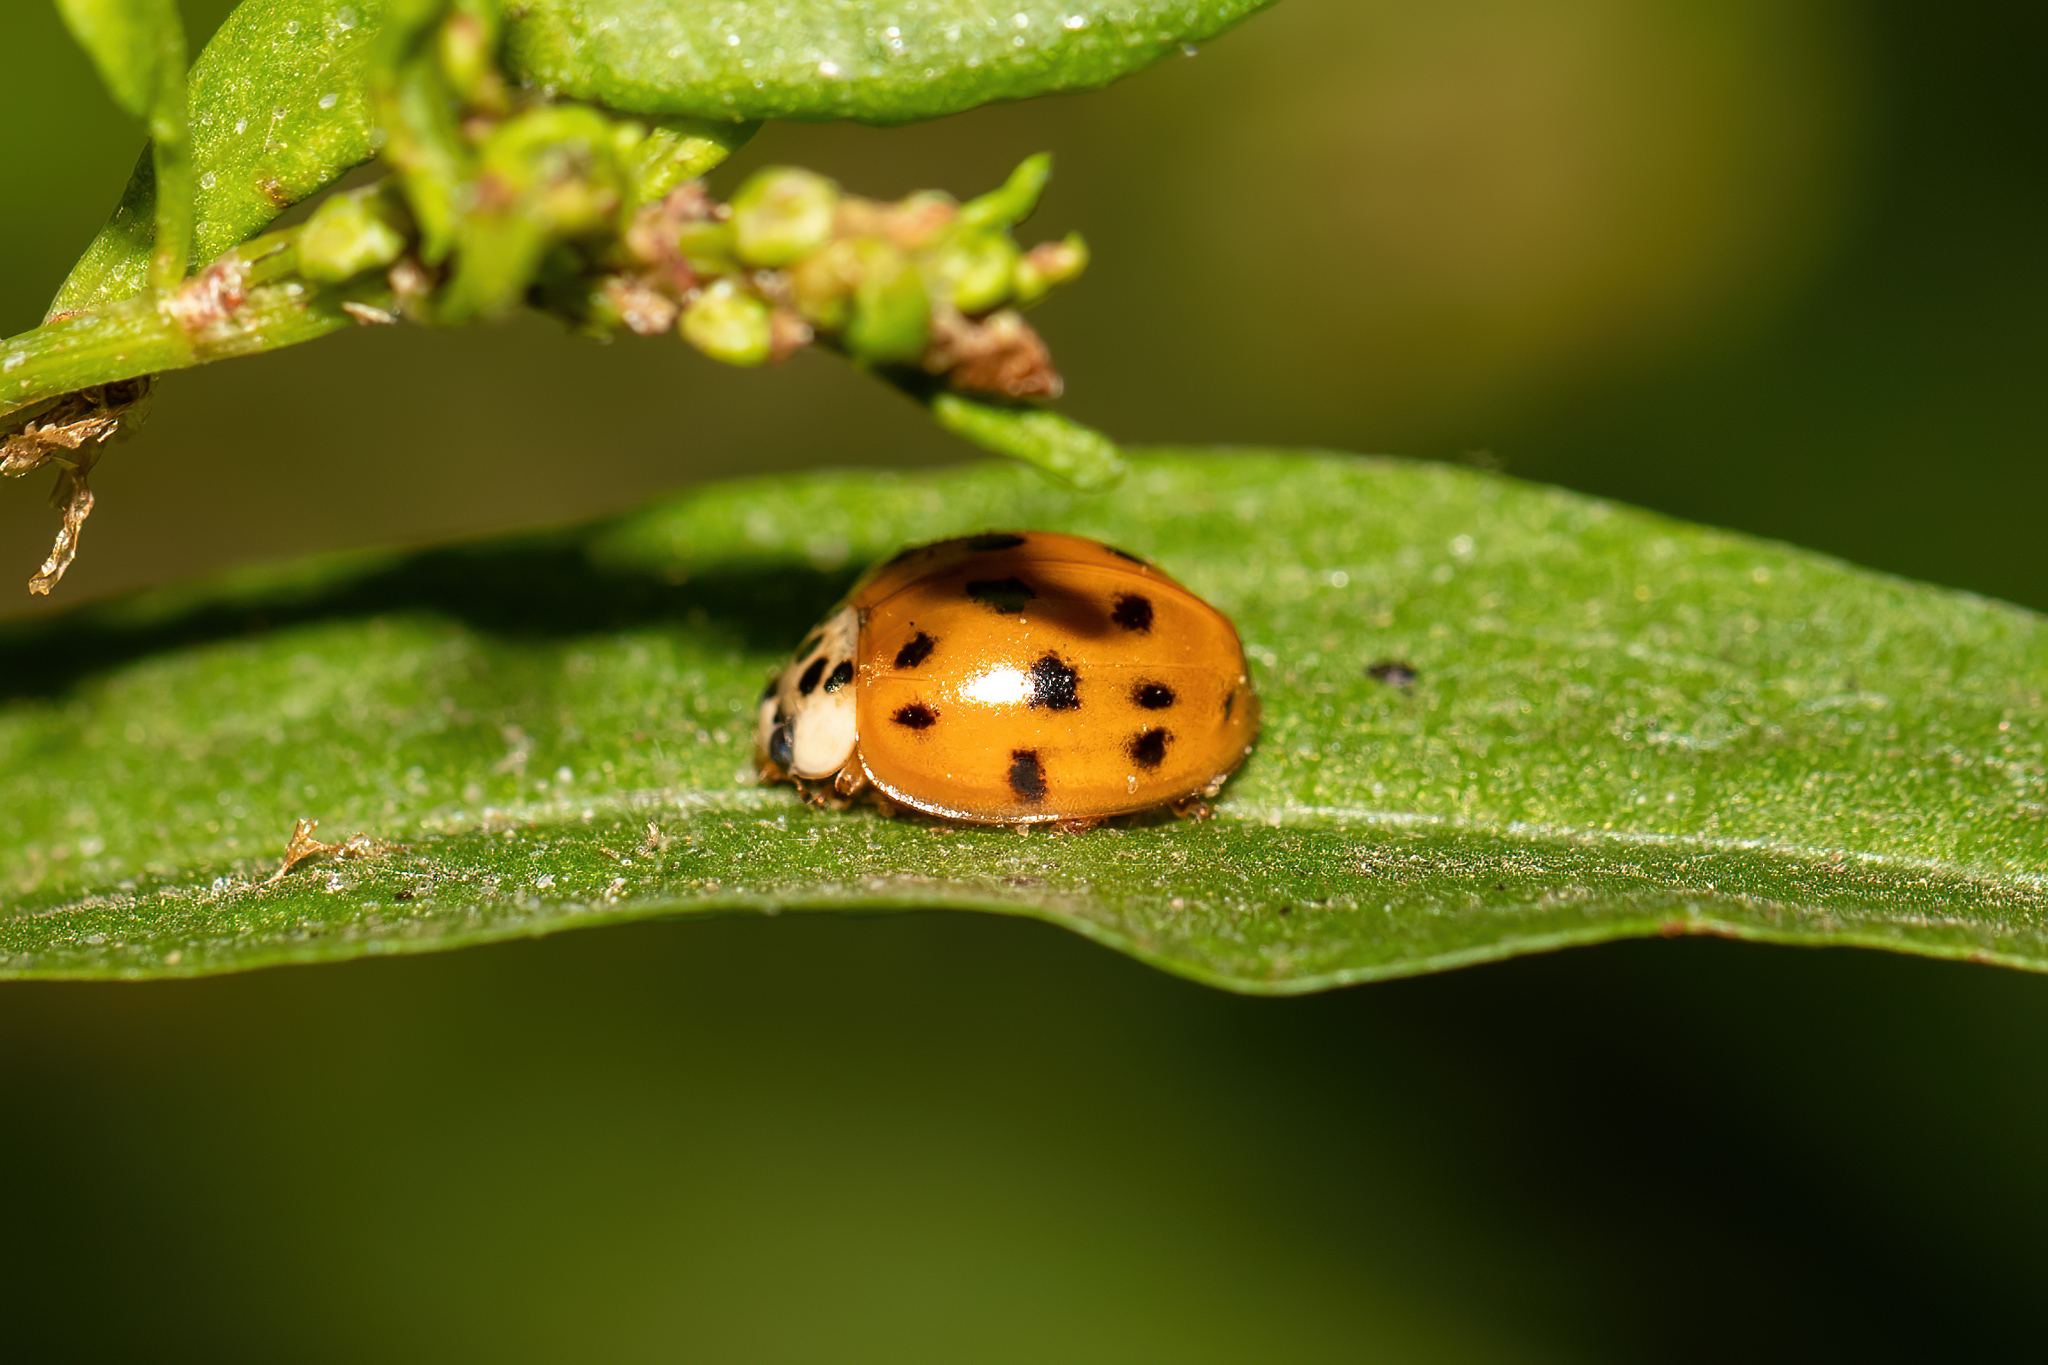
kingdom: Animalia
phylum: Arthropoda
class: Insecta
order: Coleoptera
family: Coccinellidae
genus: Harmonia
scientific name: Harmonia axyridis
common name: Harlequin ladybird
